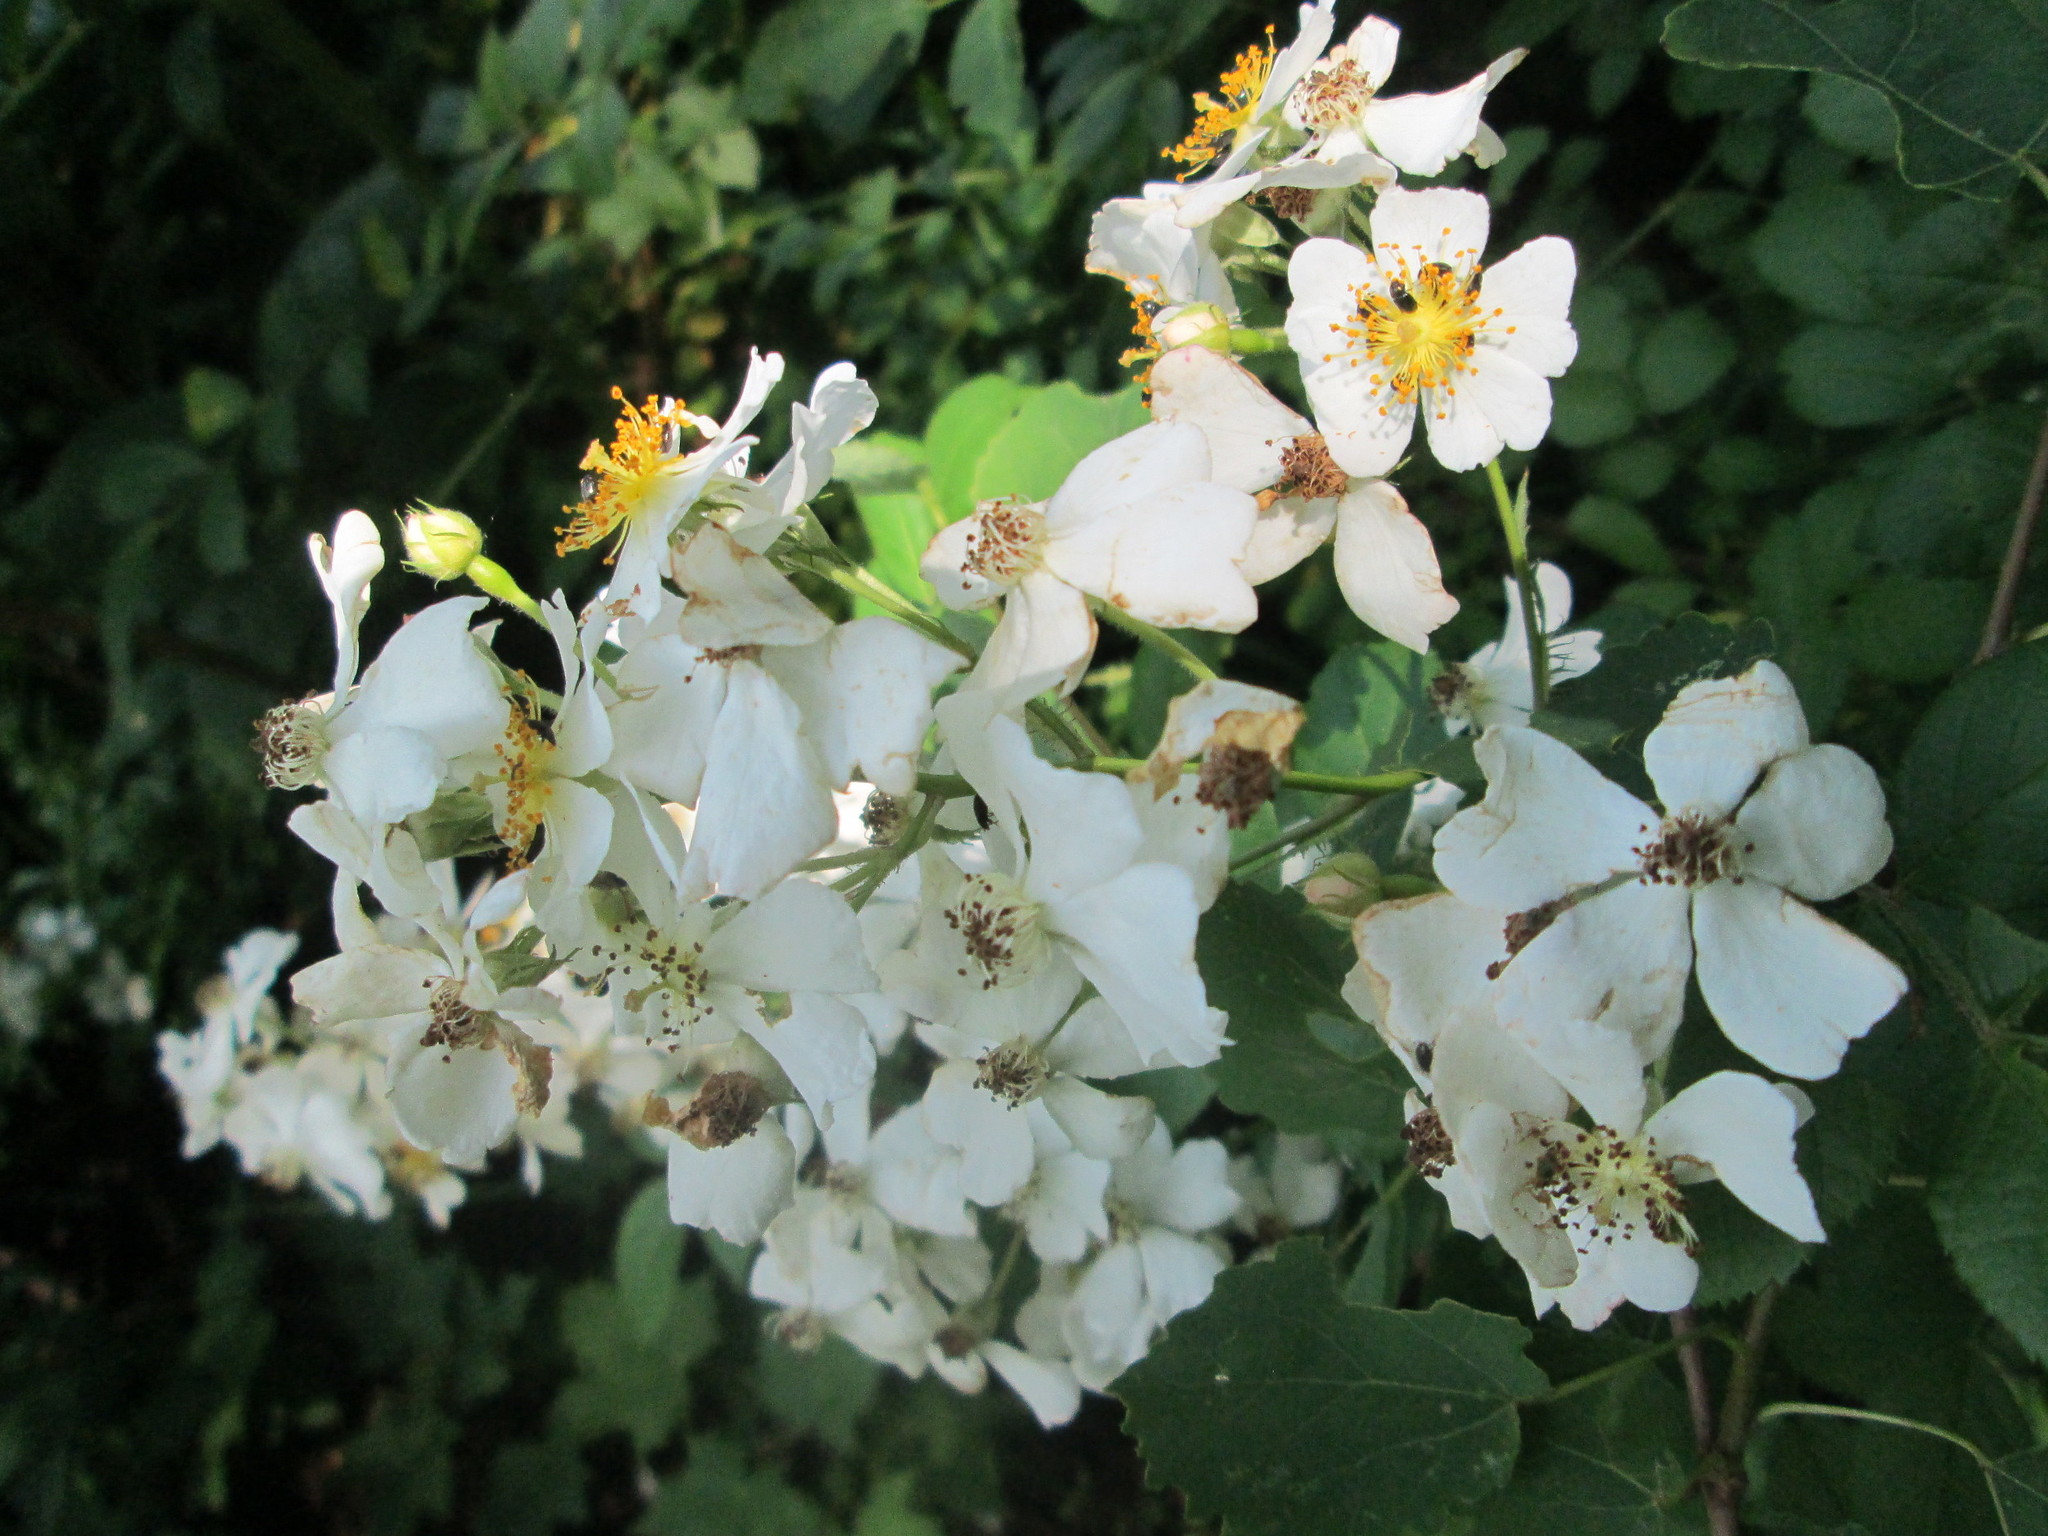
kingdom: Plantae
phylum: Tracheophyta
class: Magnoliopsida
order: Rosales
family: Rosaceae
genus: Rosa
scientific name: Rosa multiflora
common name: Multiflora rose
